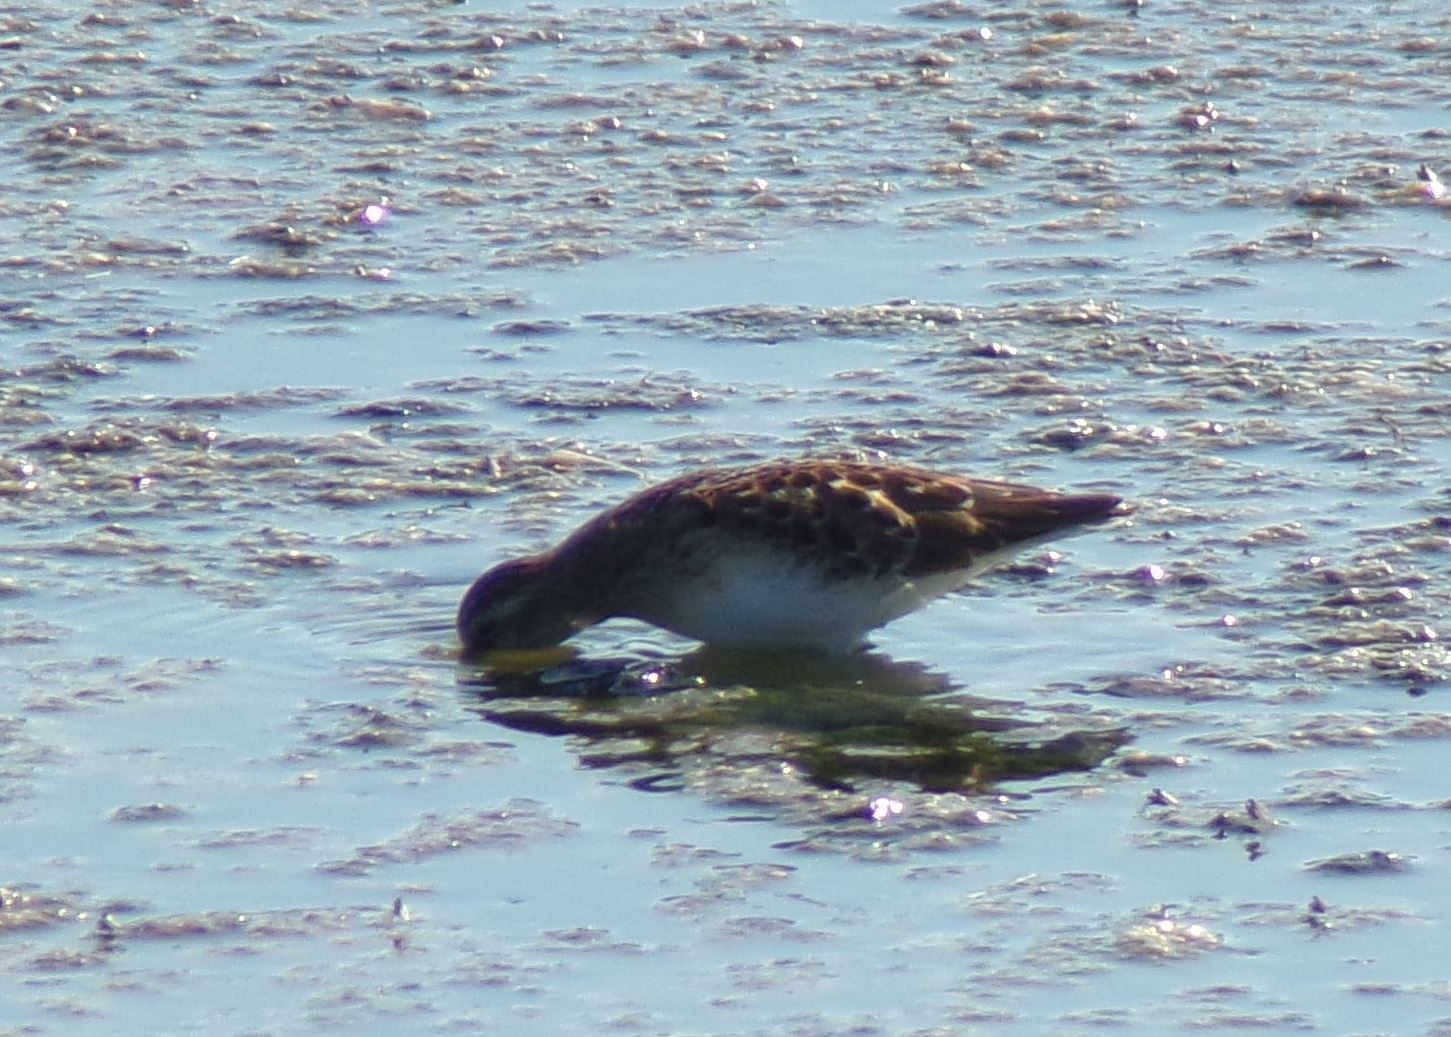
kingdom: Animalia
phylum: Chordata
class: Aves
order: Charadriiformes
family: Scolopacidae
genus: Calidris
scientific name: Calidris minutilla
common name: Least sandpiper
